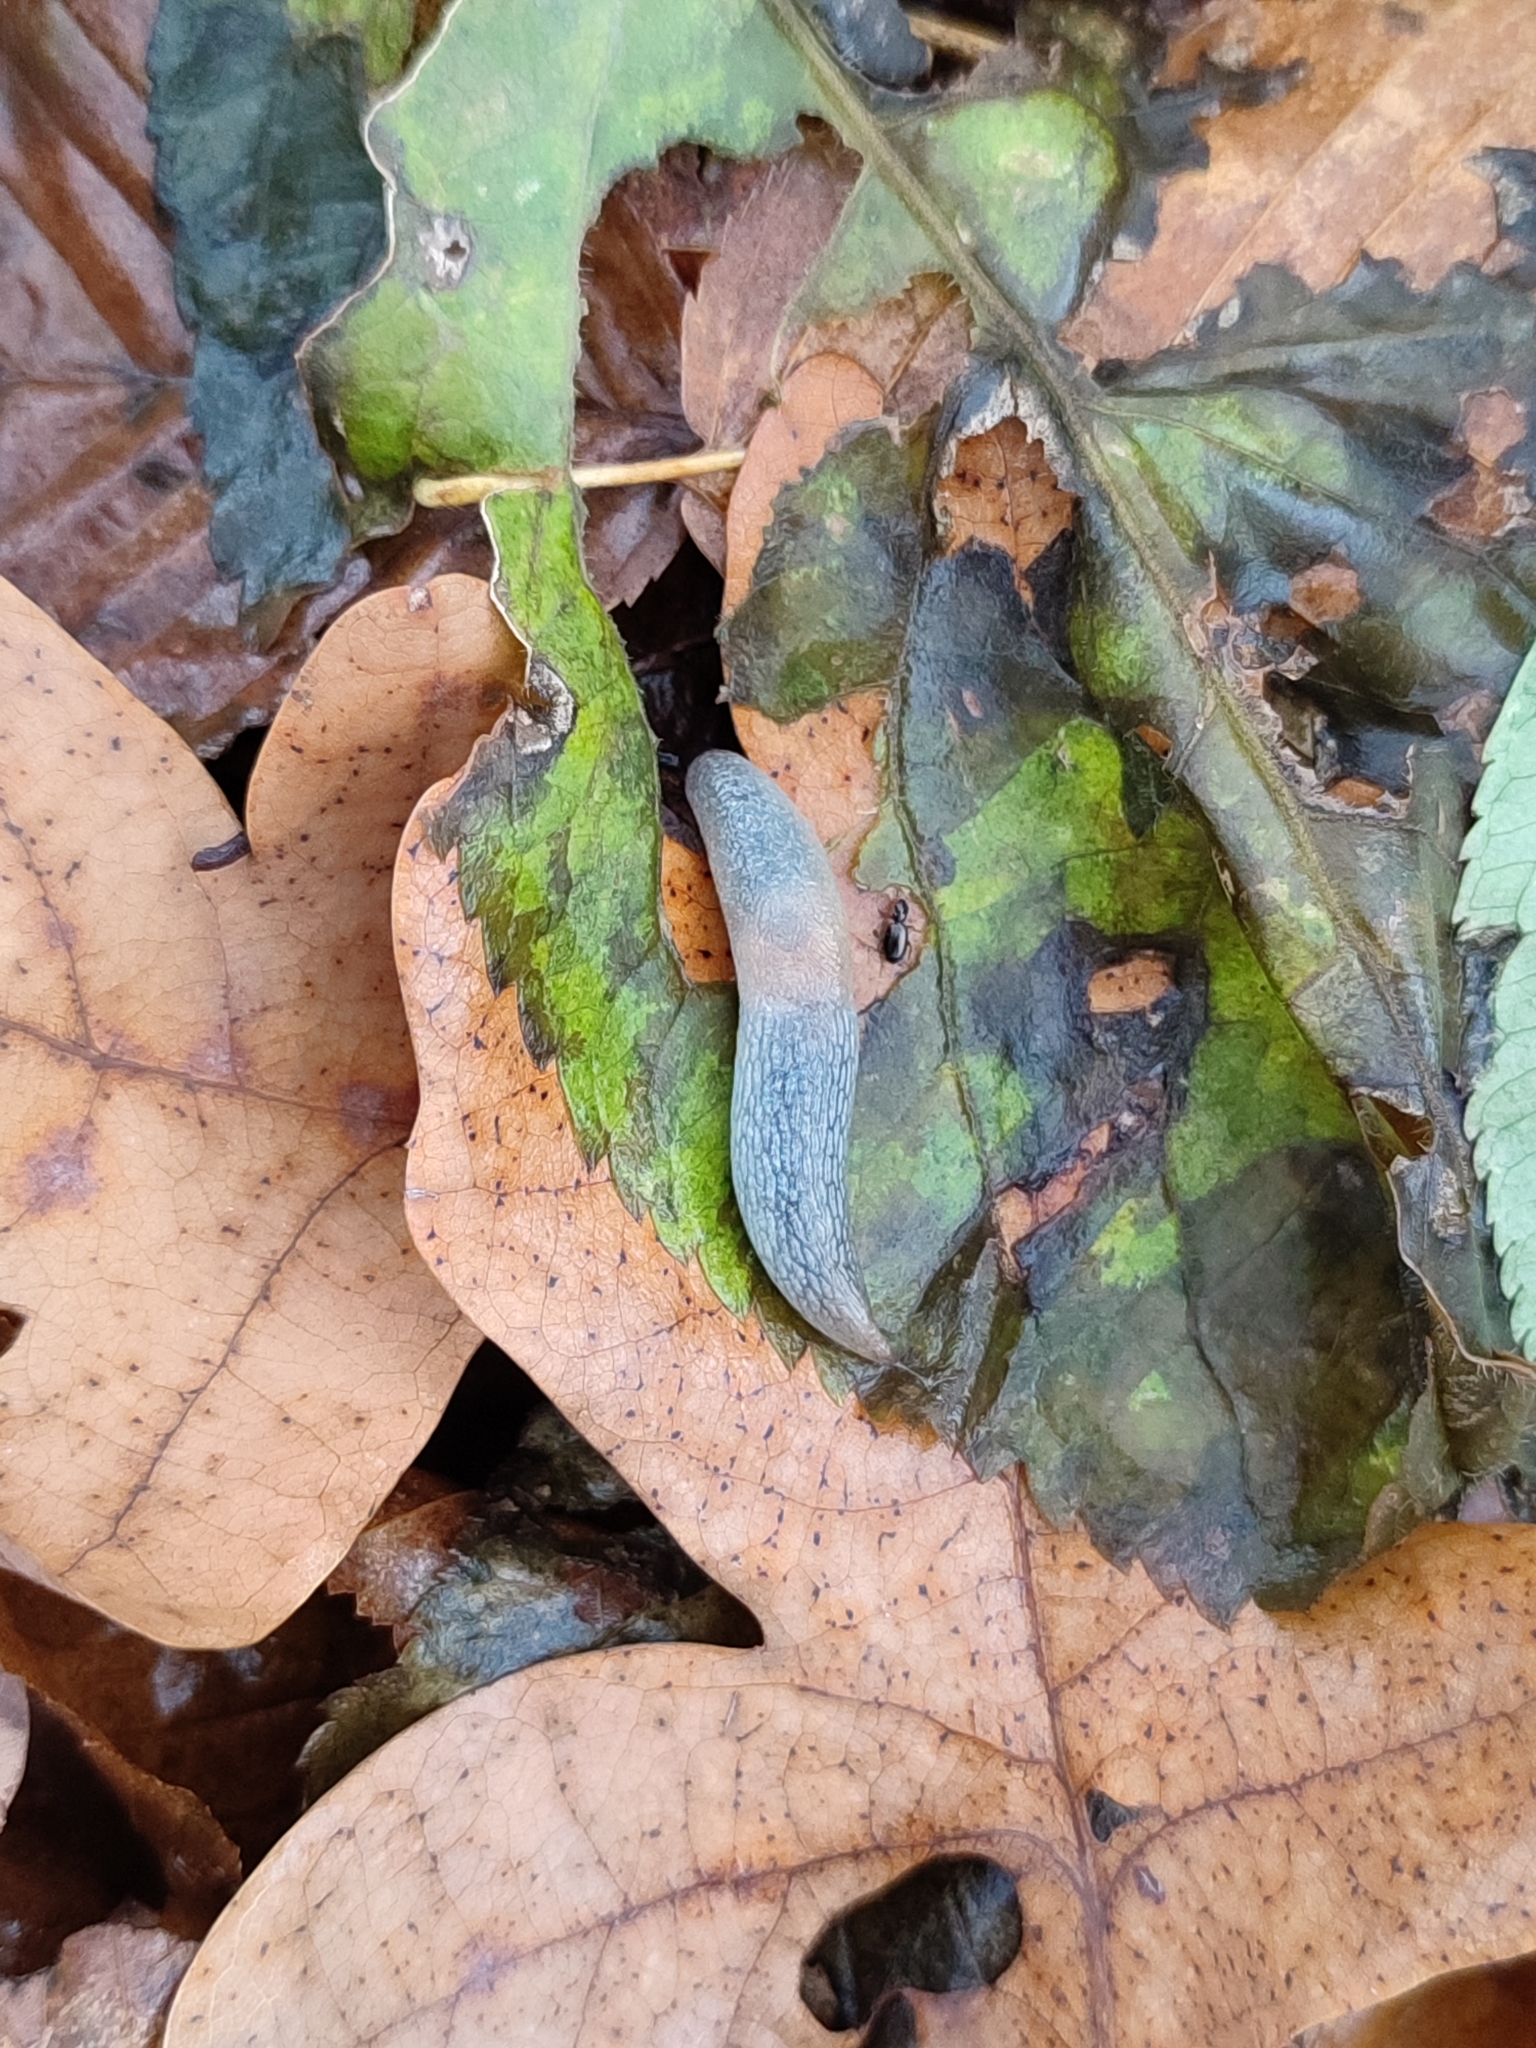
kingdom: Animalia
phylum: Mollusca
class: Gastropoda
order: Stylommatophora
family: Agriolimacidae
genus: Krynickillus
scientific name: Krynickillus melanocephalus
